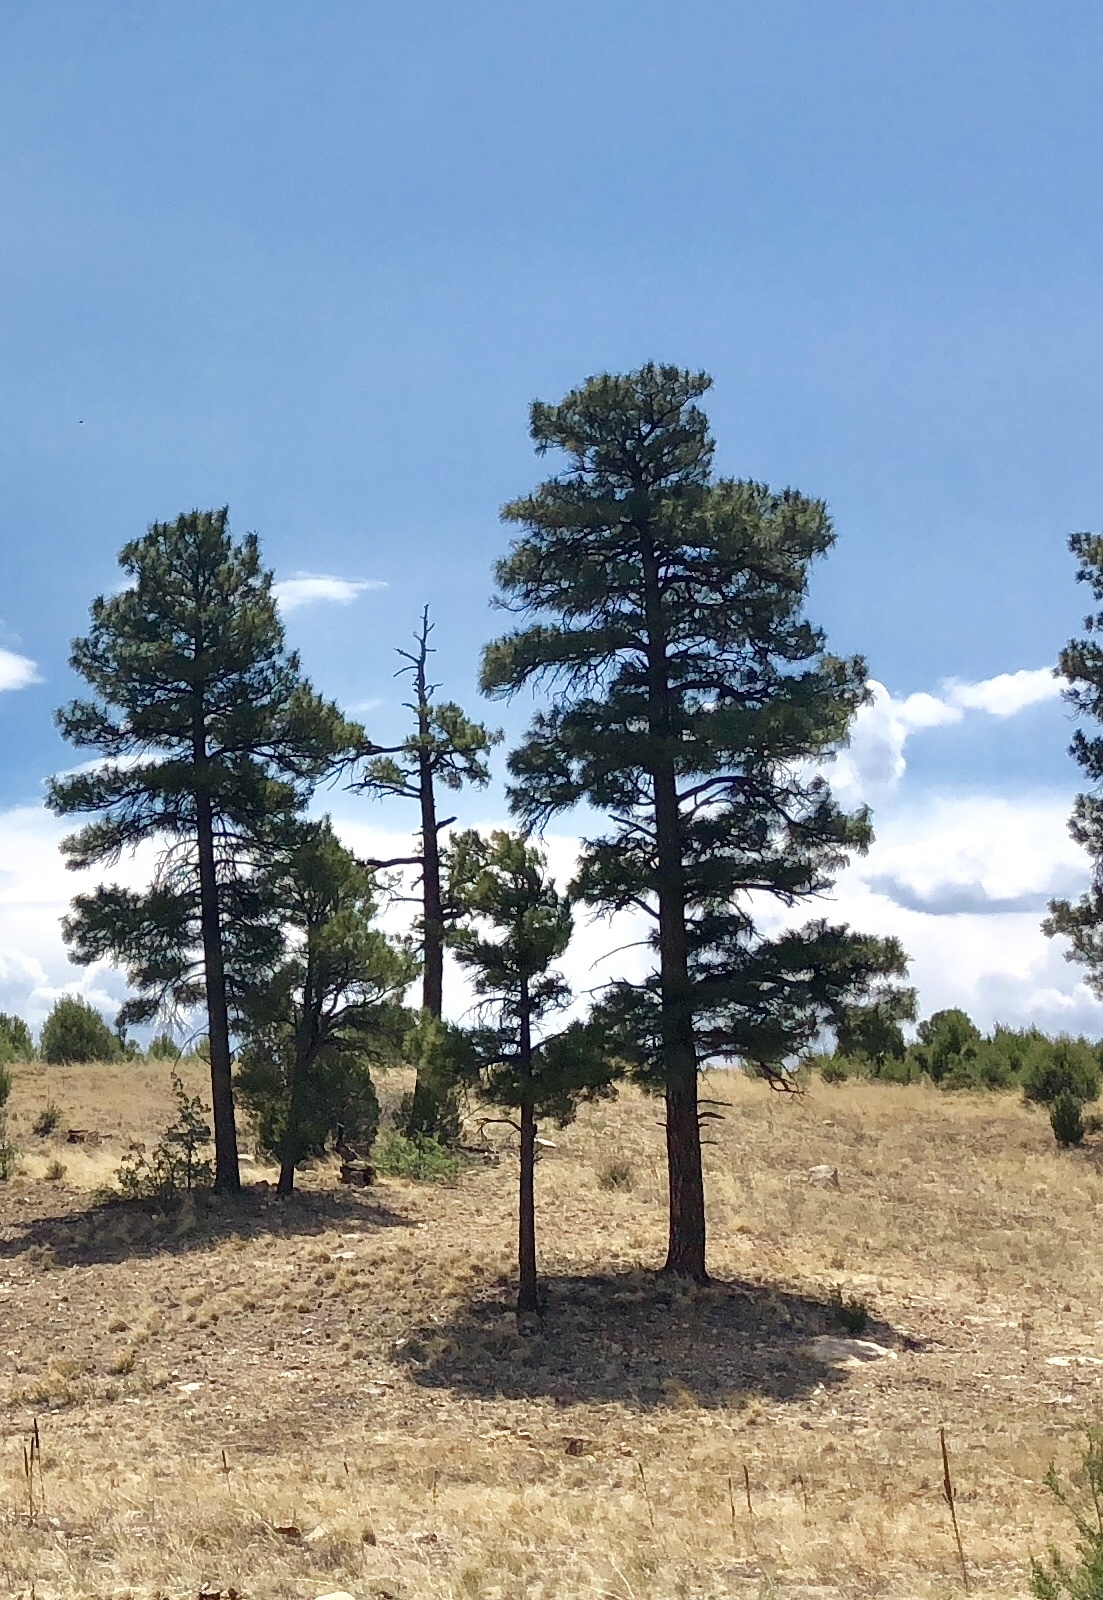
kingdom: Plantae
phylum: Tracheophyta
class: Pinopsida
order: Pinales
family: Pinaceae
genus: Pinus
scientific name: Pinus ponderosa
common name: Western yellow-pine
